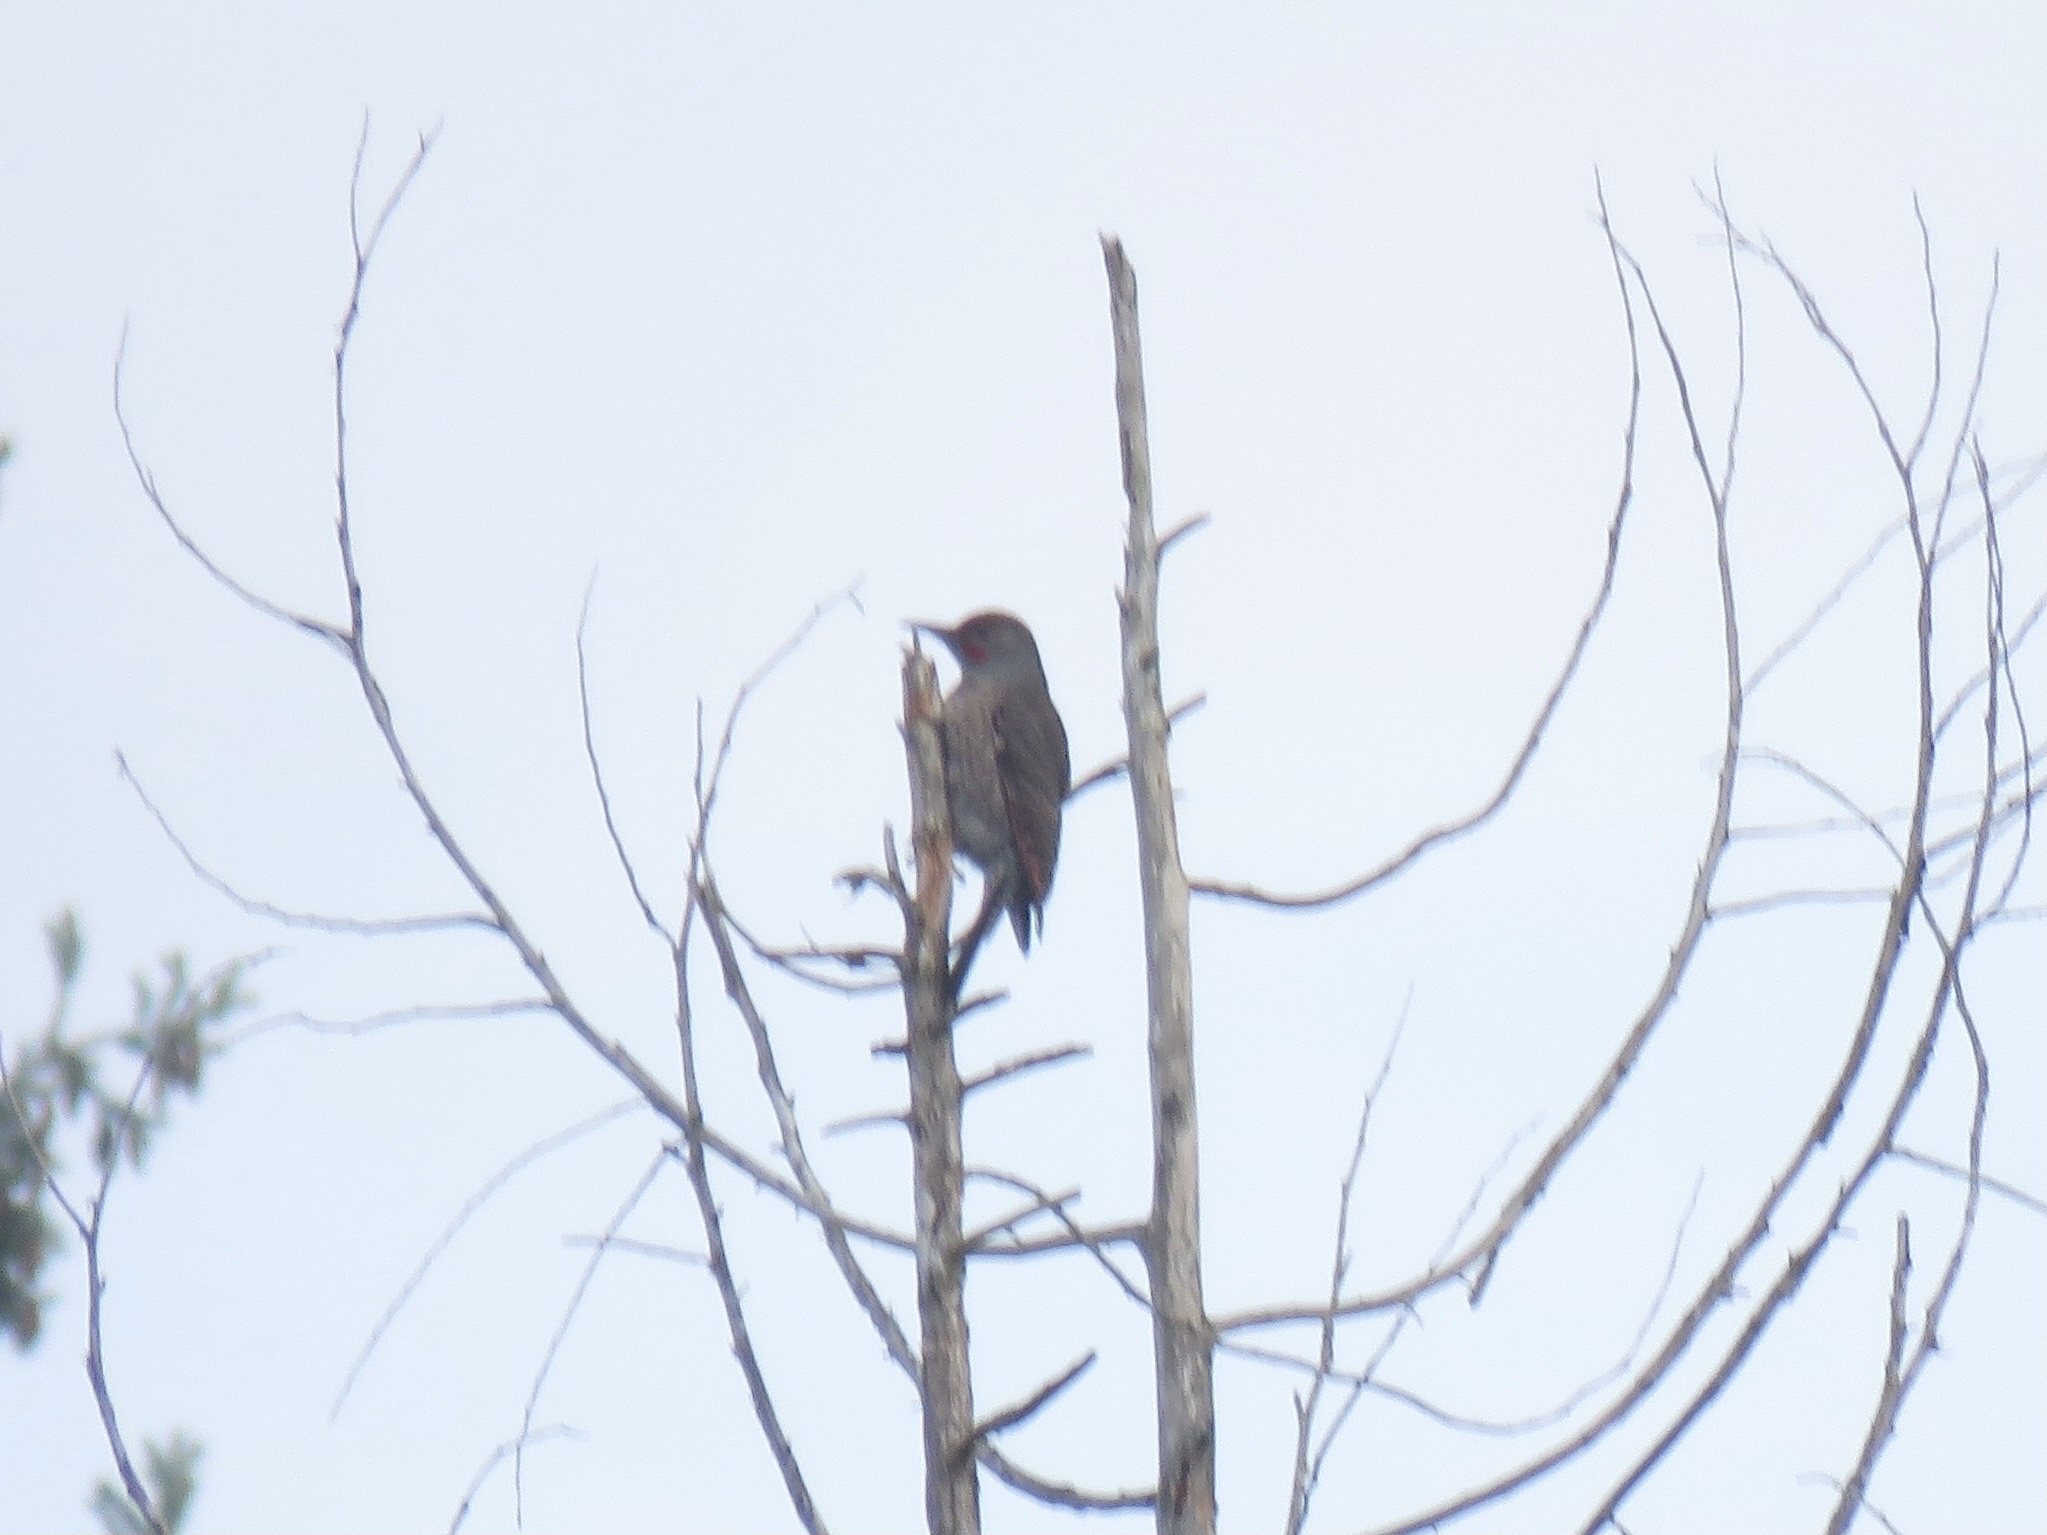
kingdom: Animalia
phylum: Chordata
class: Aves
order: Piciformes
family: Picidae
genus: Colaptes
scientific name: Colaptes auratus
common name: Northern flicker
